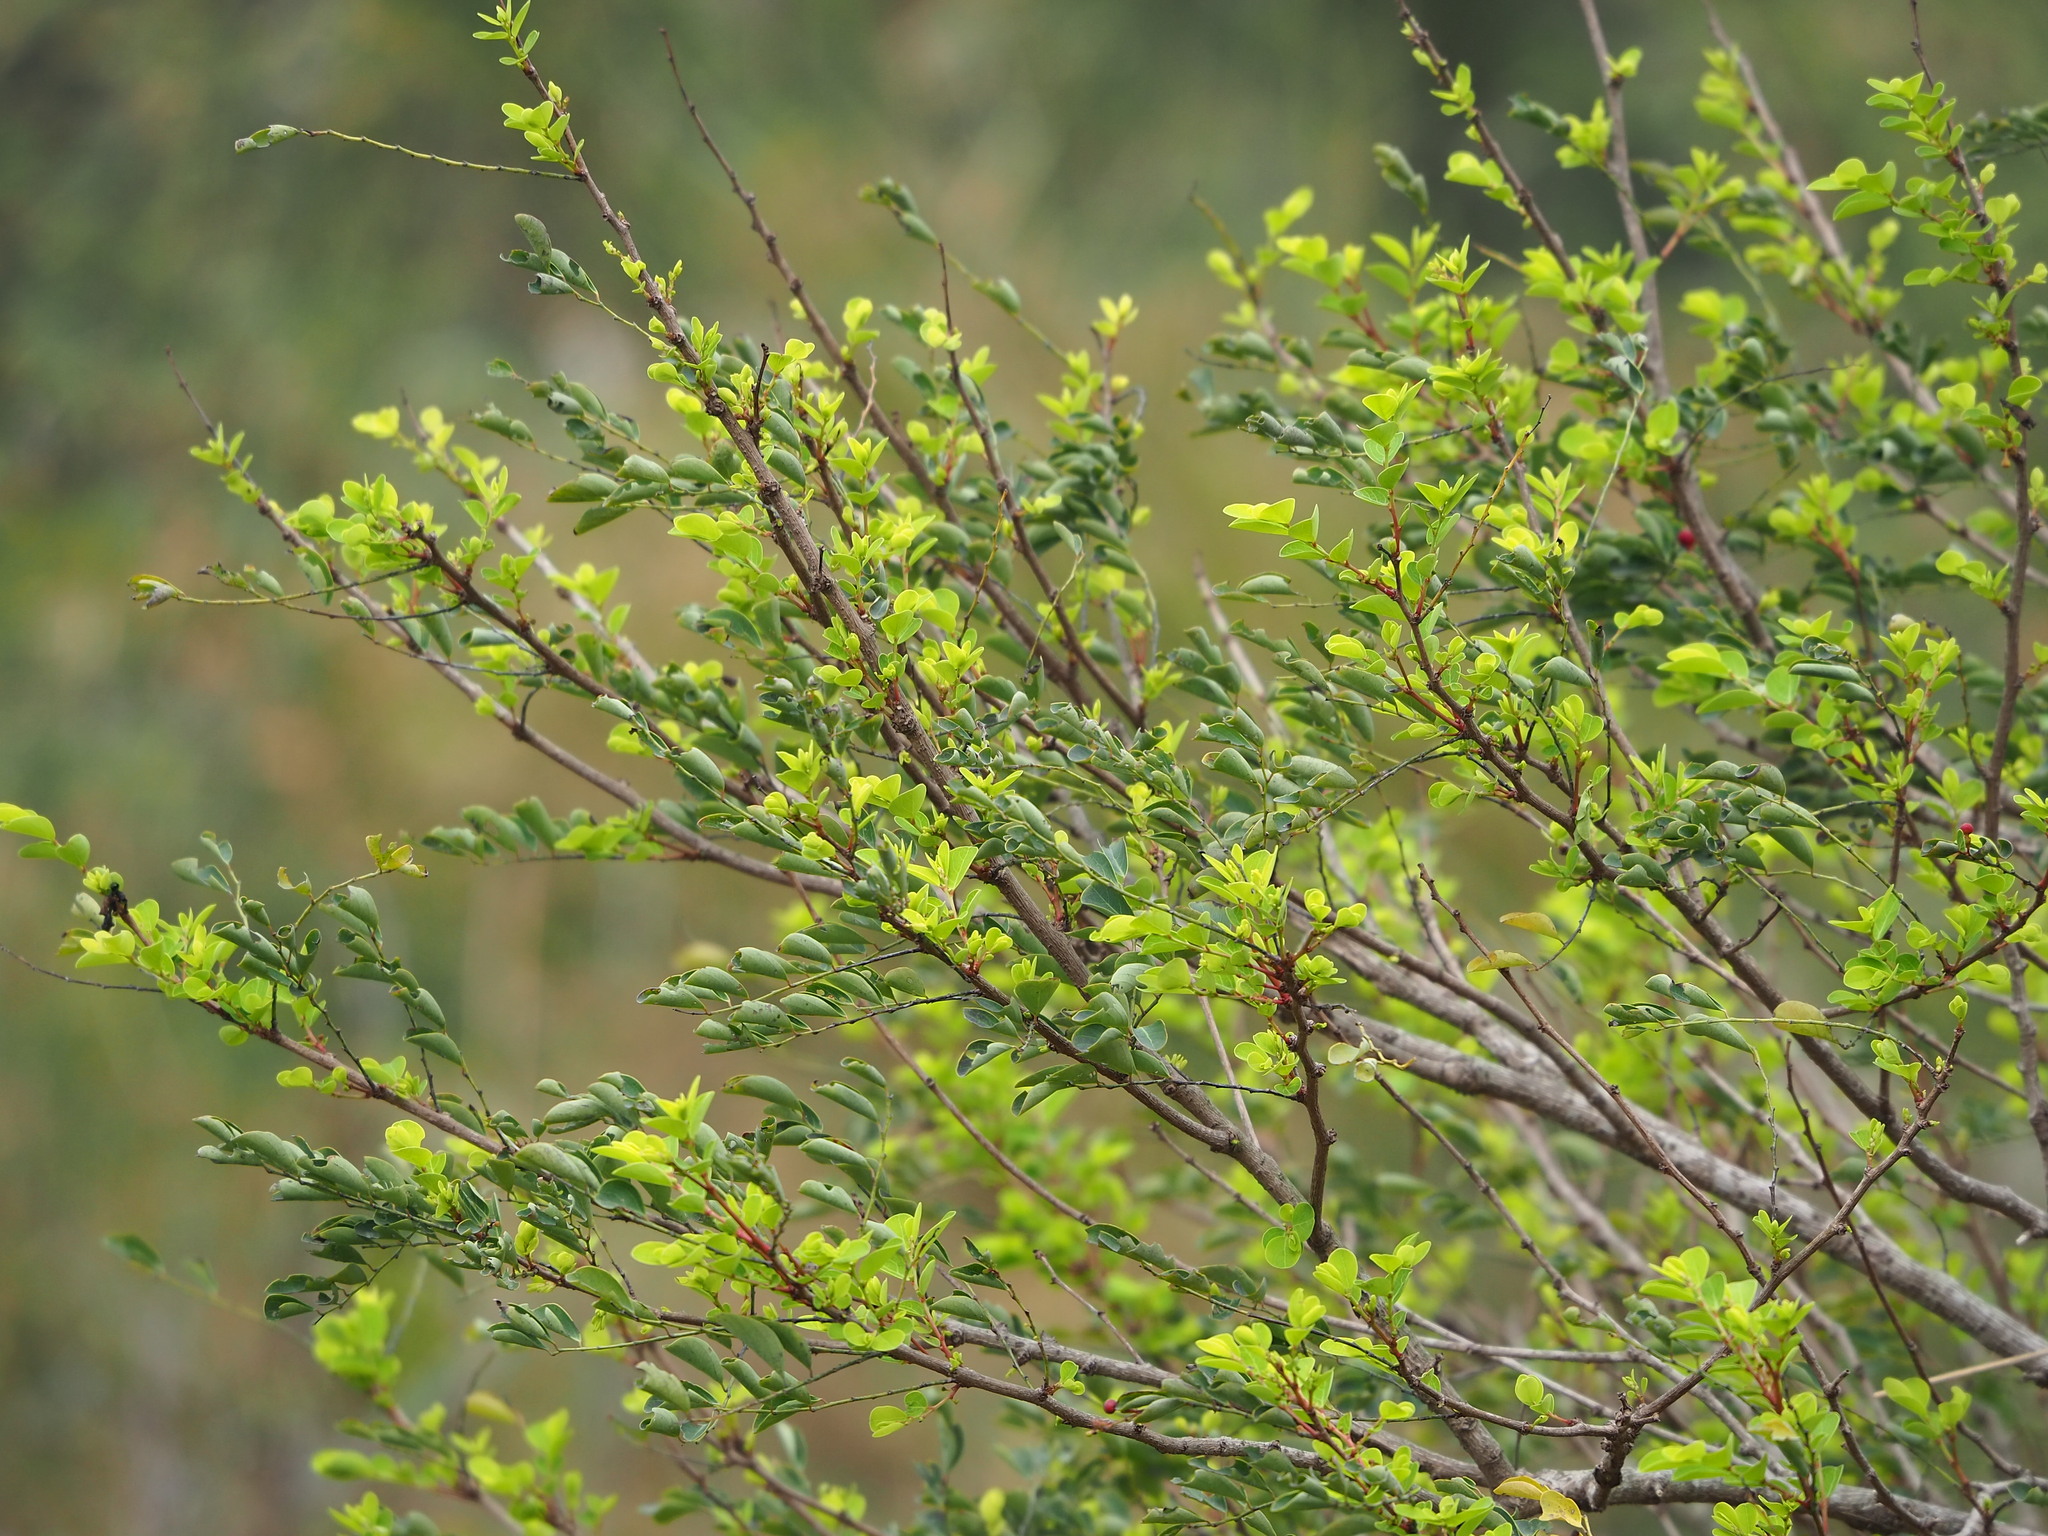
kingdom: Plantae
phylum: Tracheophyta
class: Magnoliopsida
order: Malpighiales
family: Phyllanthaceae
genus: Breynia
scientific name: Breynia vitis-idaea
